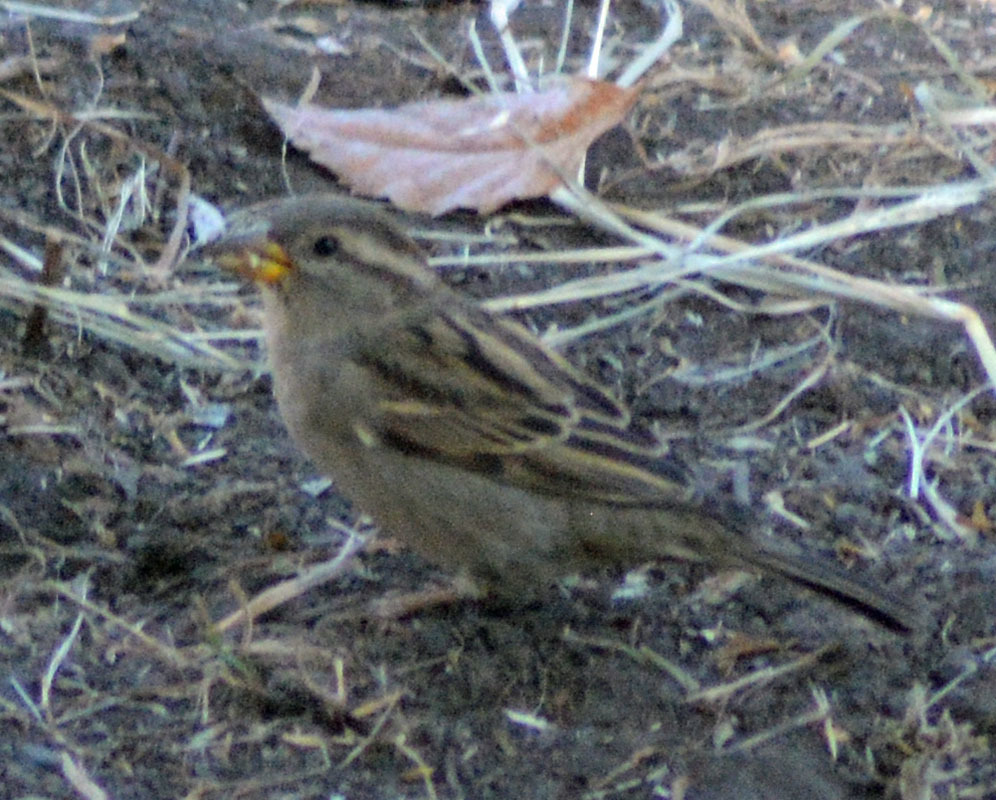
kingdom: Animalia
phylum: Chordata
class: Aves
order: Passeriformes
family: Passeridae
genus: Passer
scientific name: Passer domesticus
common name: House sparrow
